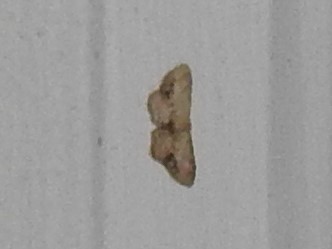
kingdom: Animalia
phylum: Arthropoda
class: Insecta
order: Lepidoptera
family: Geometridae
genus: Idaea
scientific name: Idaea dimidiata
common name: Single-dotted wave
